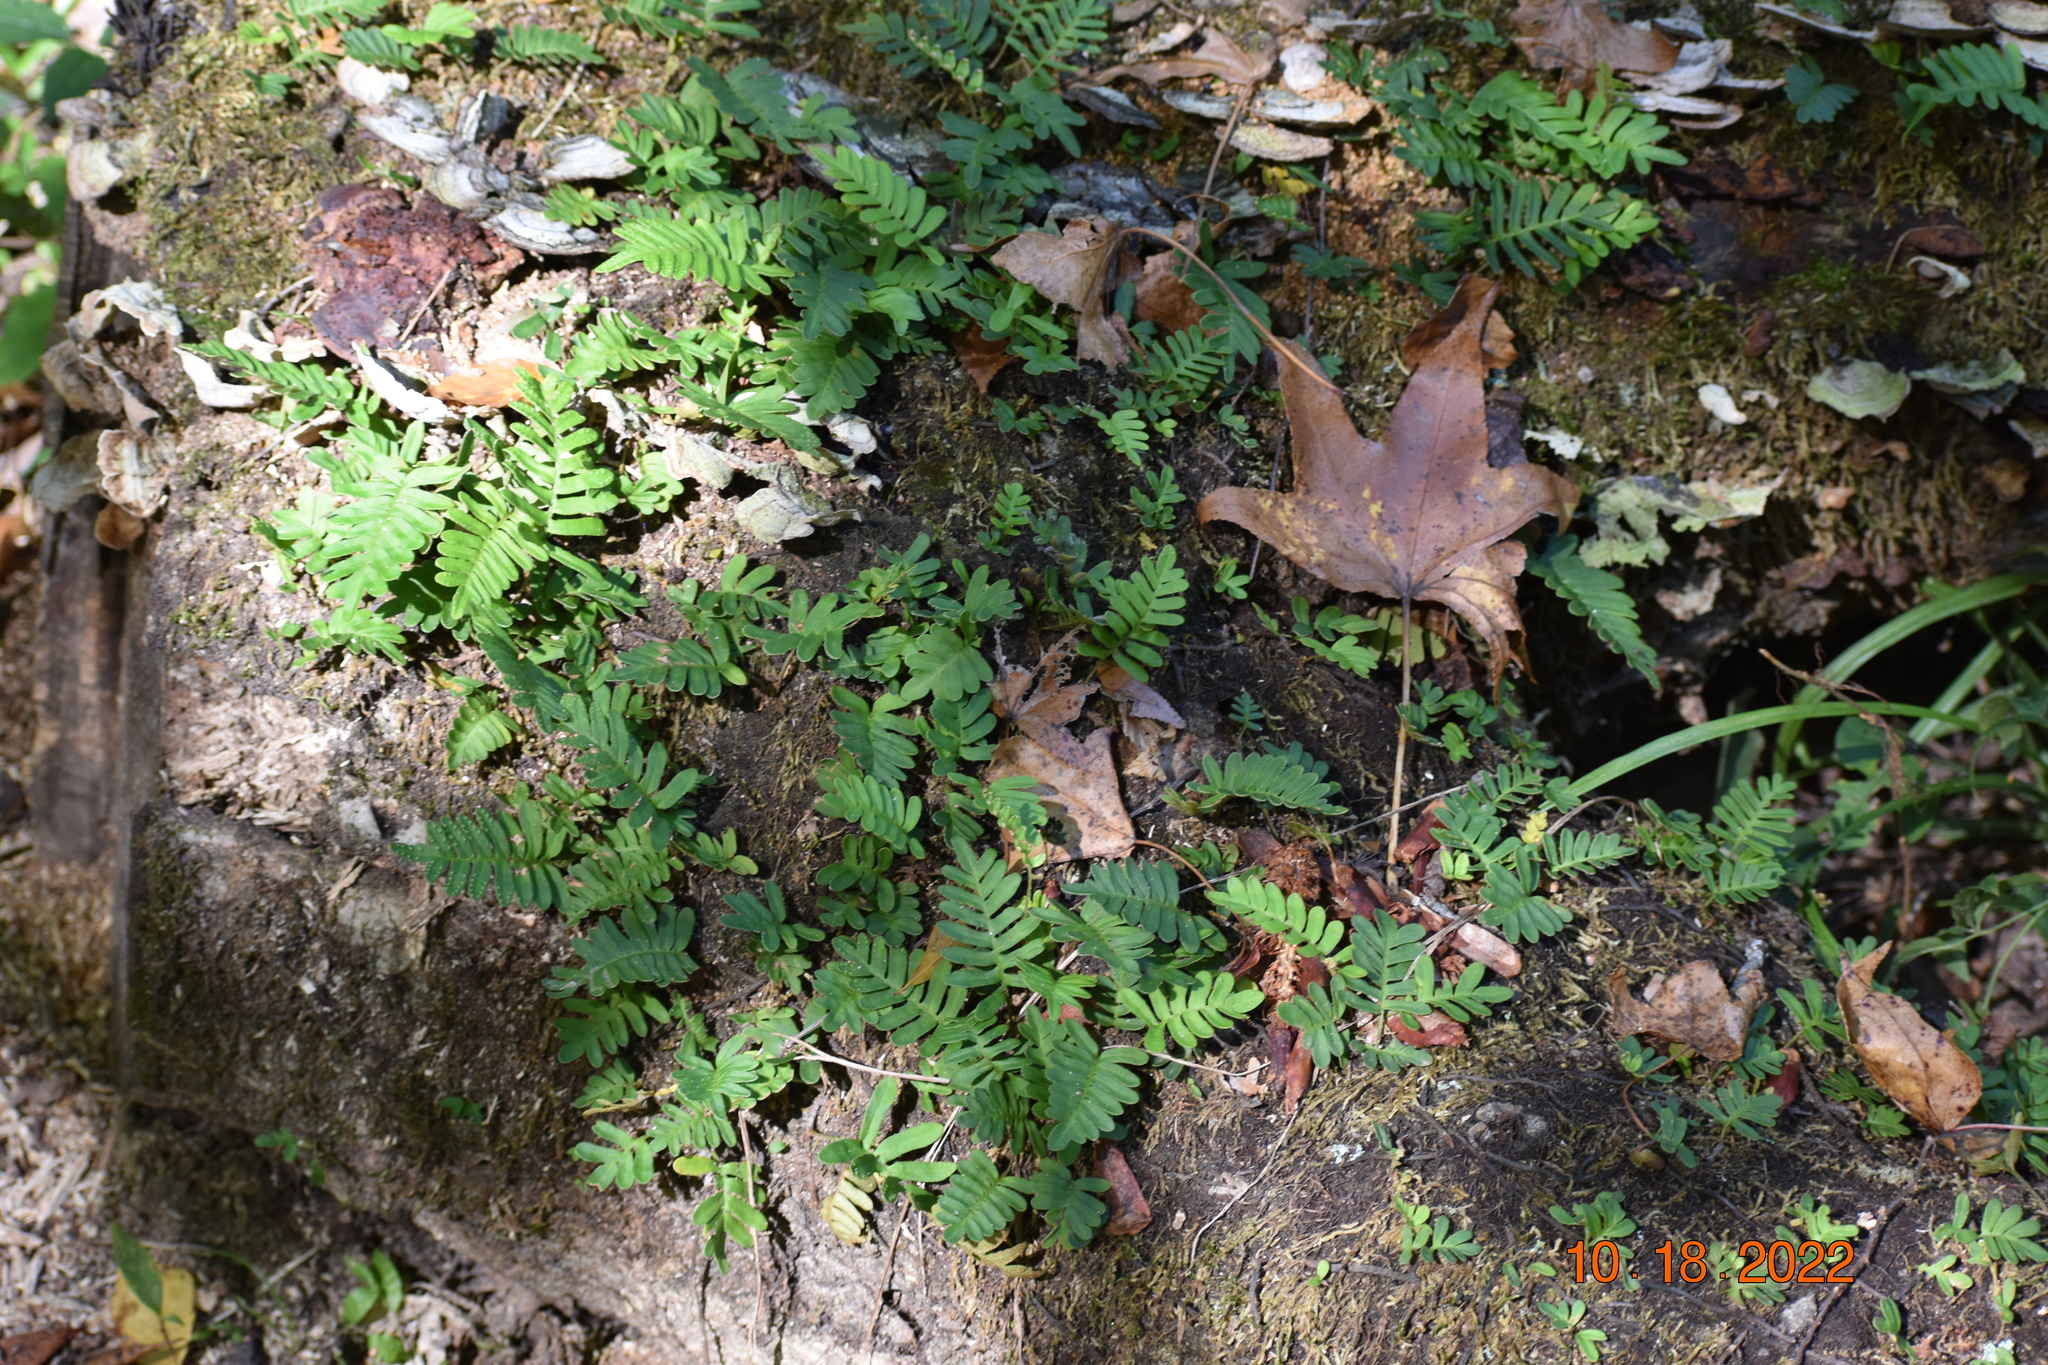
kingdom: Plantae
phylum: Tracheophyta
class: Polypodiopsida
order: Polypodiales
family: Polypodiaceae
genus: Pleopeltis
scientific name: Pleopeltis michauxiana
